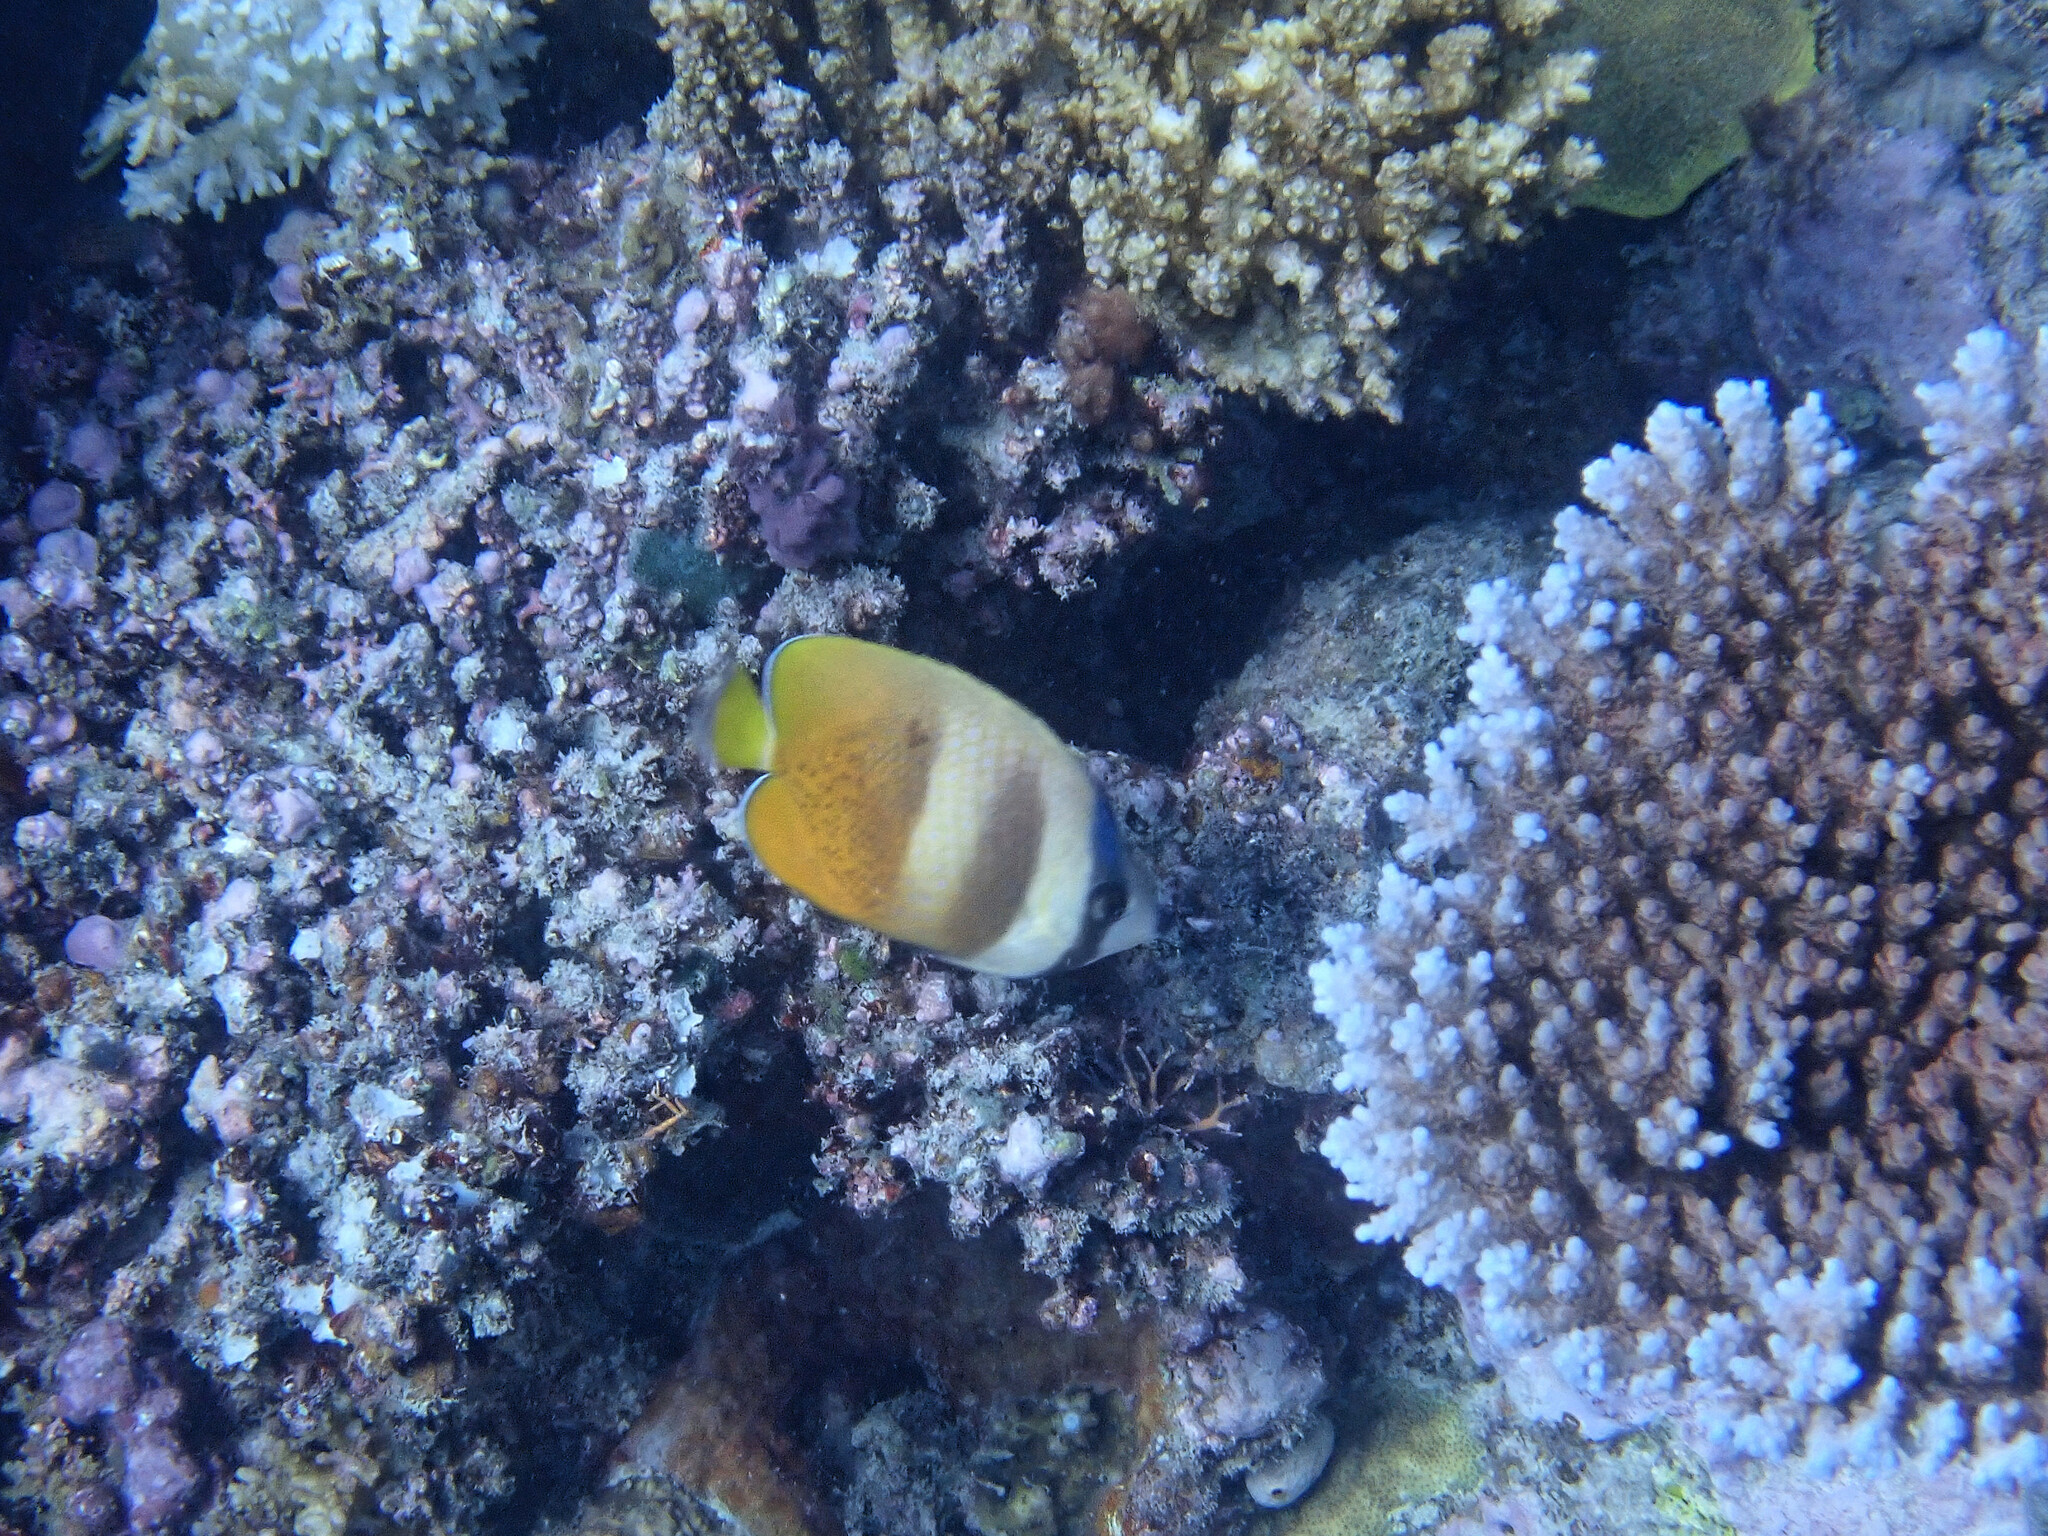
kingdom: Animalia
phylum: Chordata
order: Perciformes
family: Chaetodontidae
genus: Chaetodon
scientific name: Chaetodon kleinii
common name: Klein's butterflyfish
